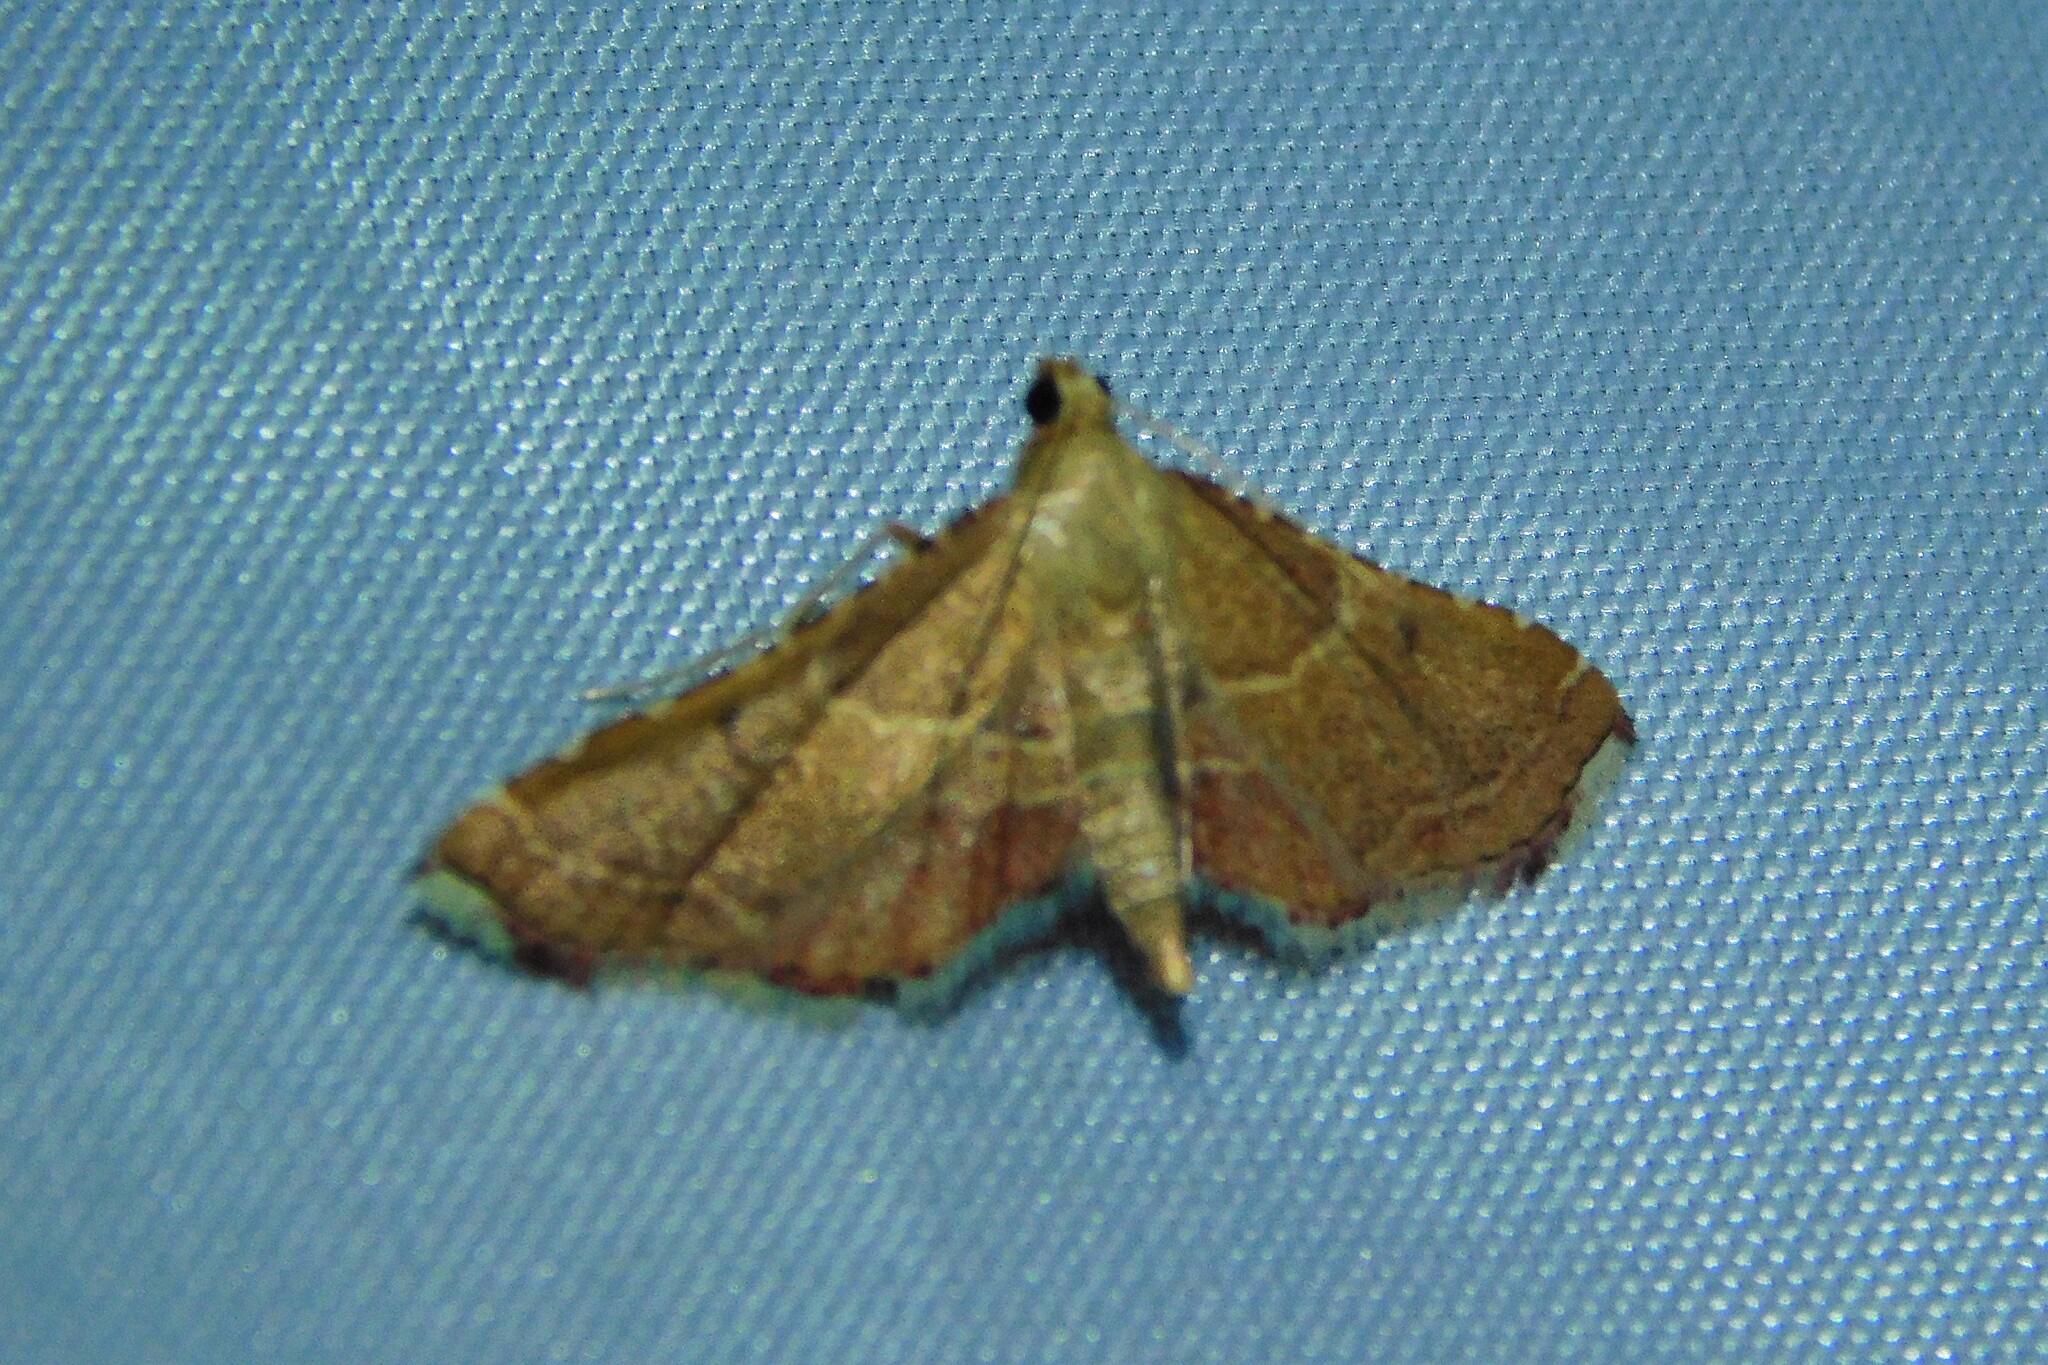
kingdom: Animalia
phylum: Arthropoda
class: Insecta
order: Lepidoptera
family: Pyralidae
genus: Endotricha
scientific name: Endotricha flammealis
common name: Rosy tabby
